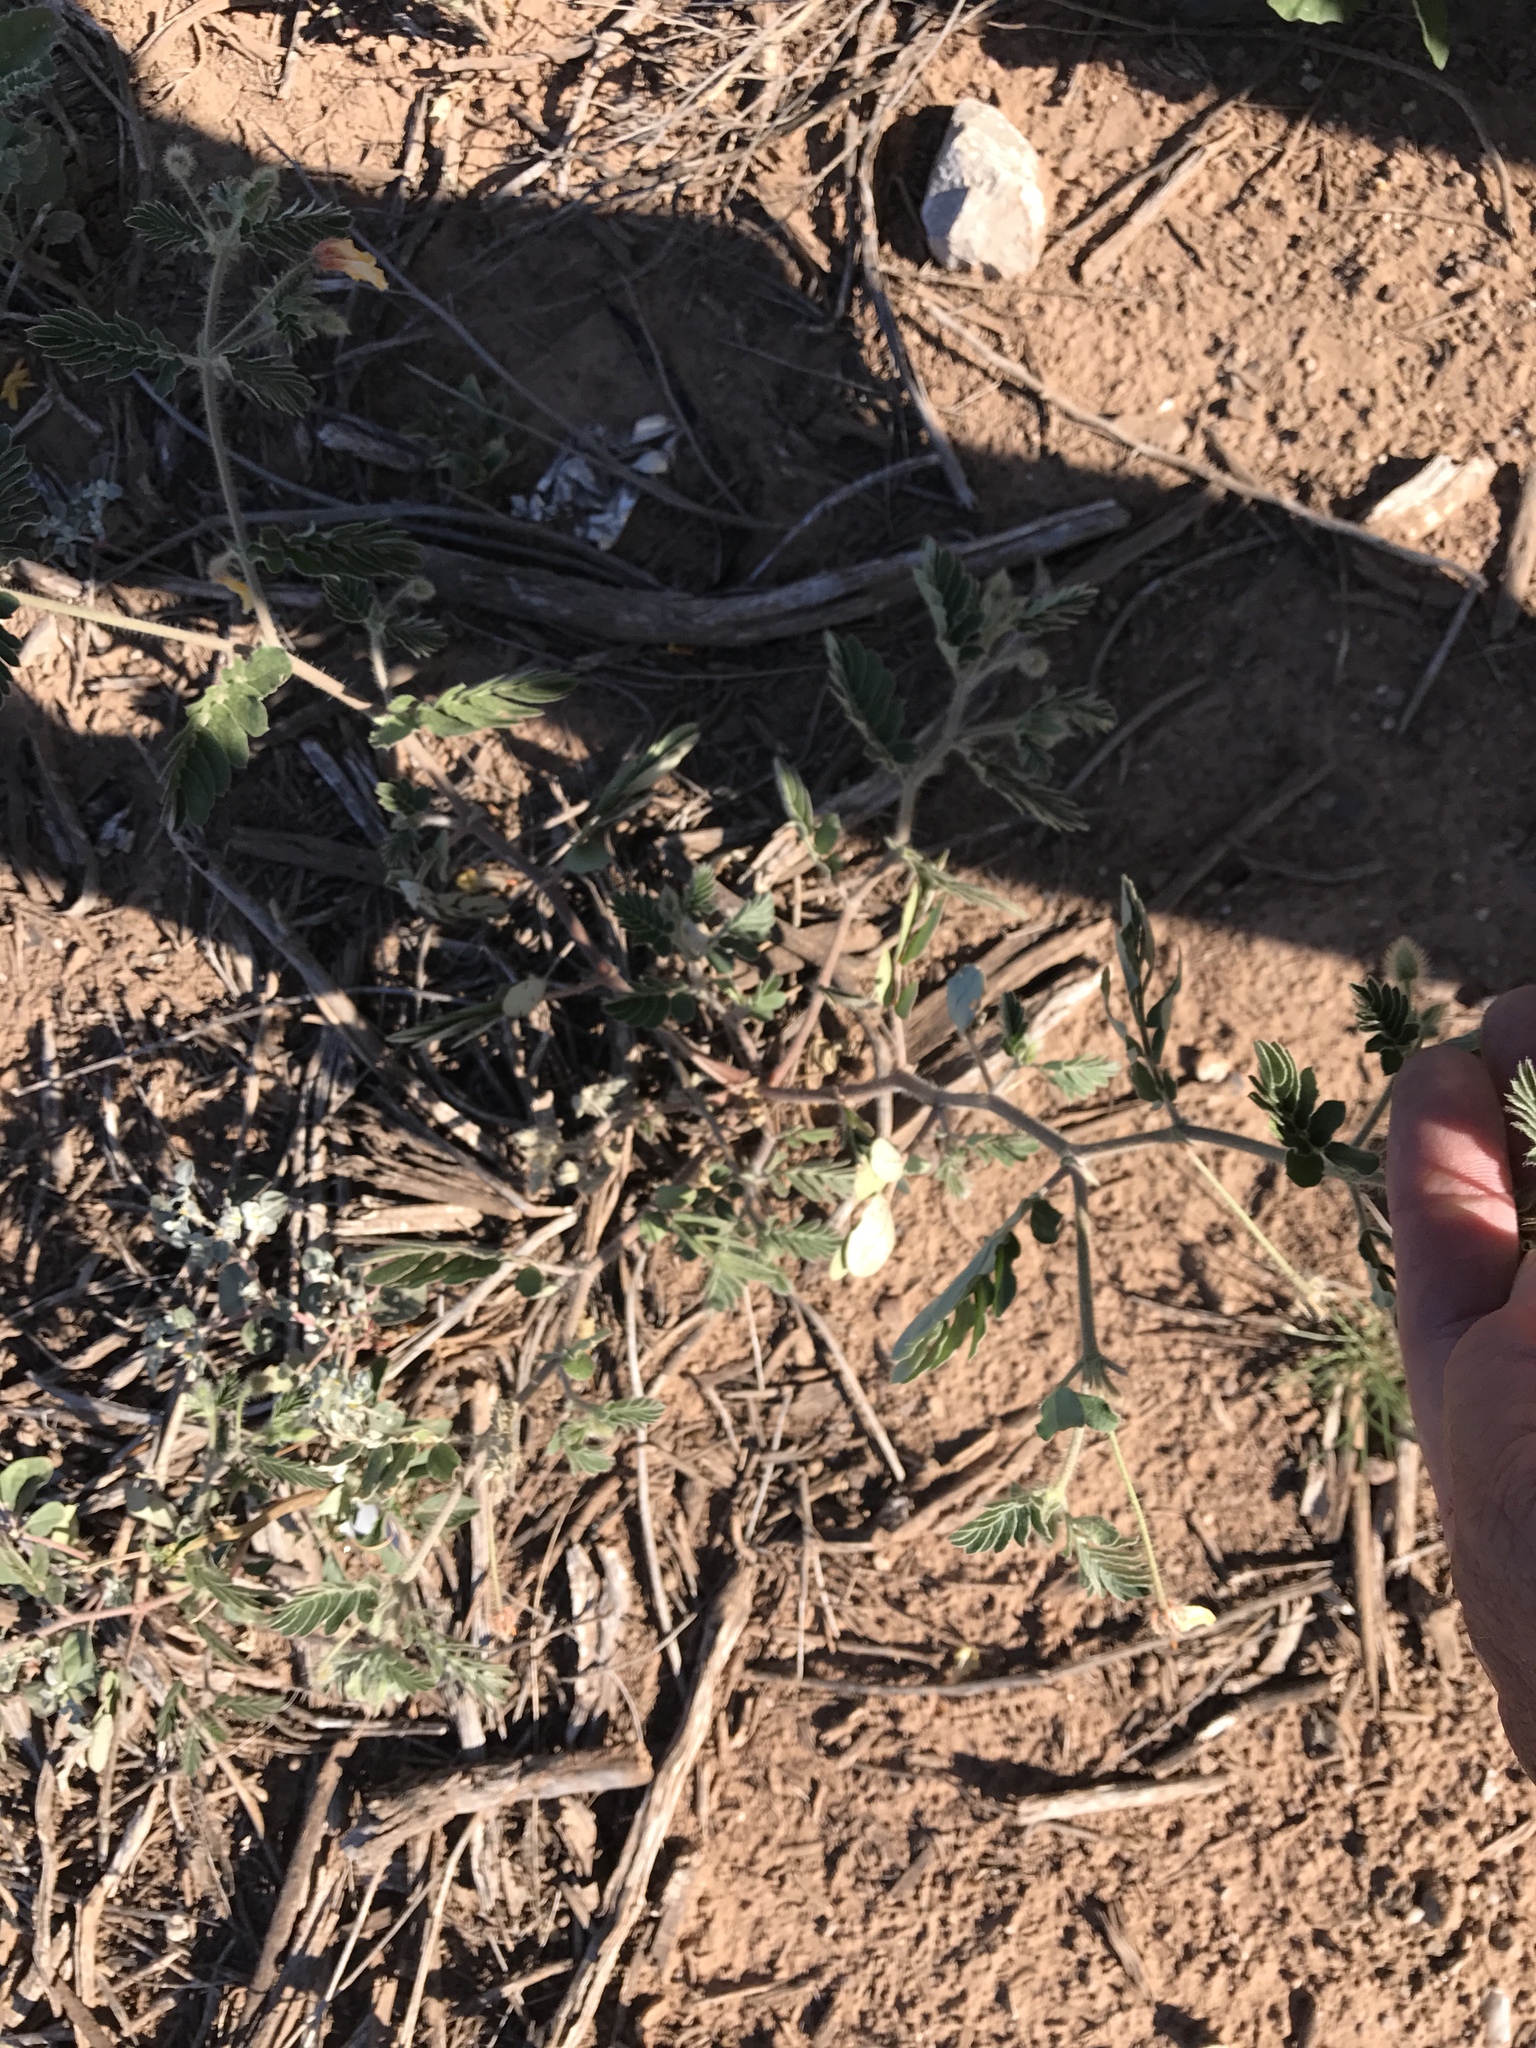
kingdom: Plantae
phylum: Tracheophyta
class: Magnoliopsida
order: Zygophyllales
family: Zygophyllaceae
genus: Kallstroemia
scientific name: Kallstroemia grandiflora
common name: Arizona-poppy
